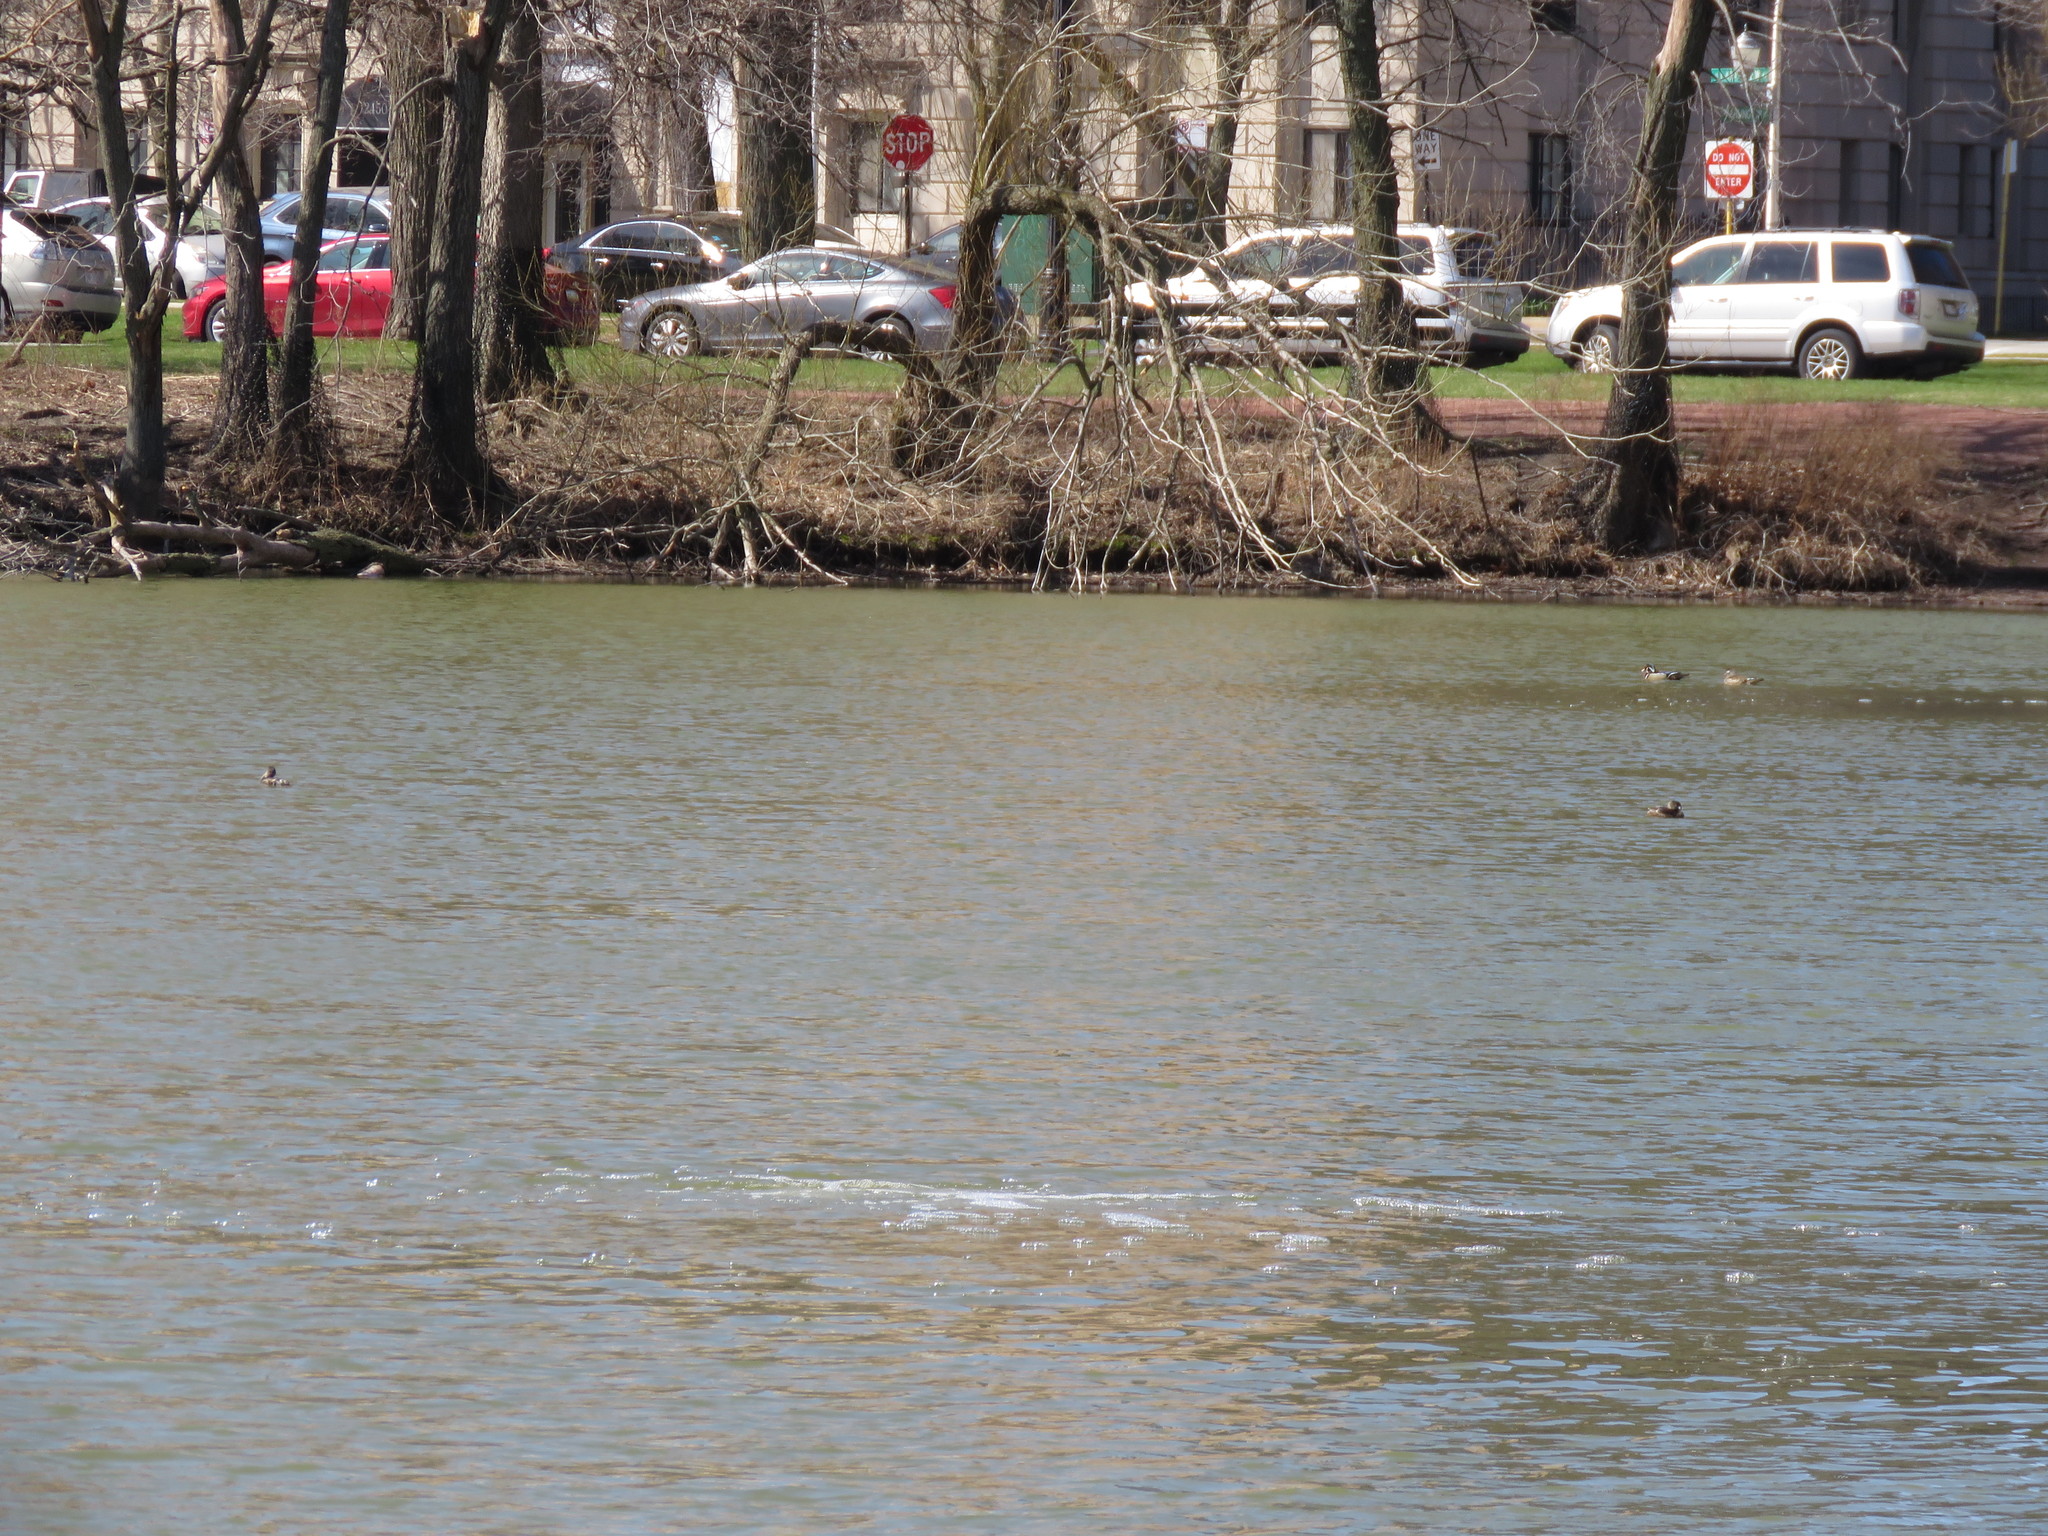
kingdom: Animalia
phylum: Chordata
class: Aves
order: Podicipediformes
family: Podicipedidae
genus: Podilymbus
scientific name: Podilymbus podiceps
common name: Pied-billed grebe
